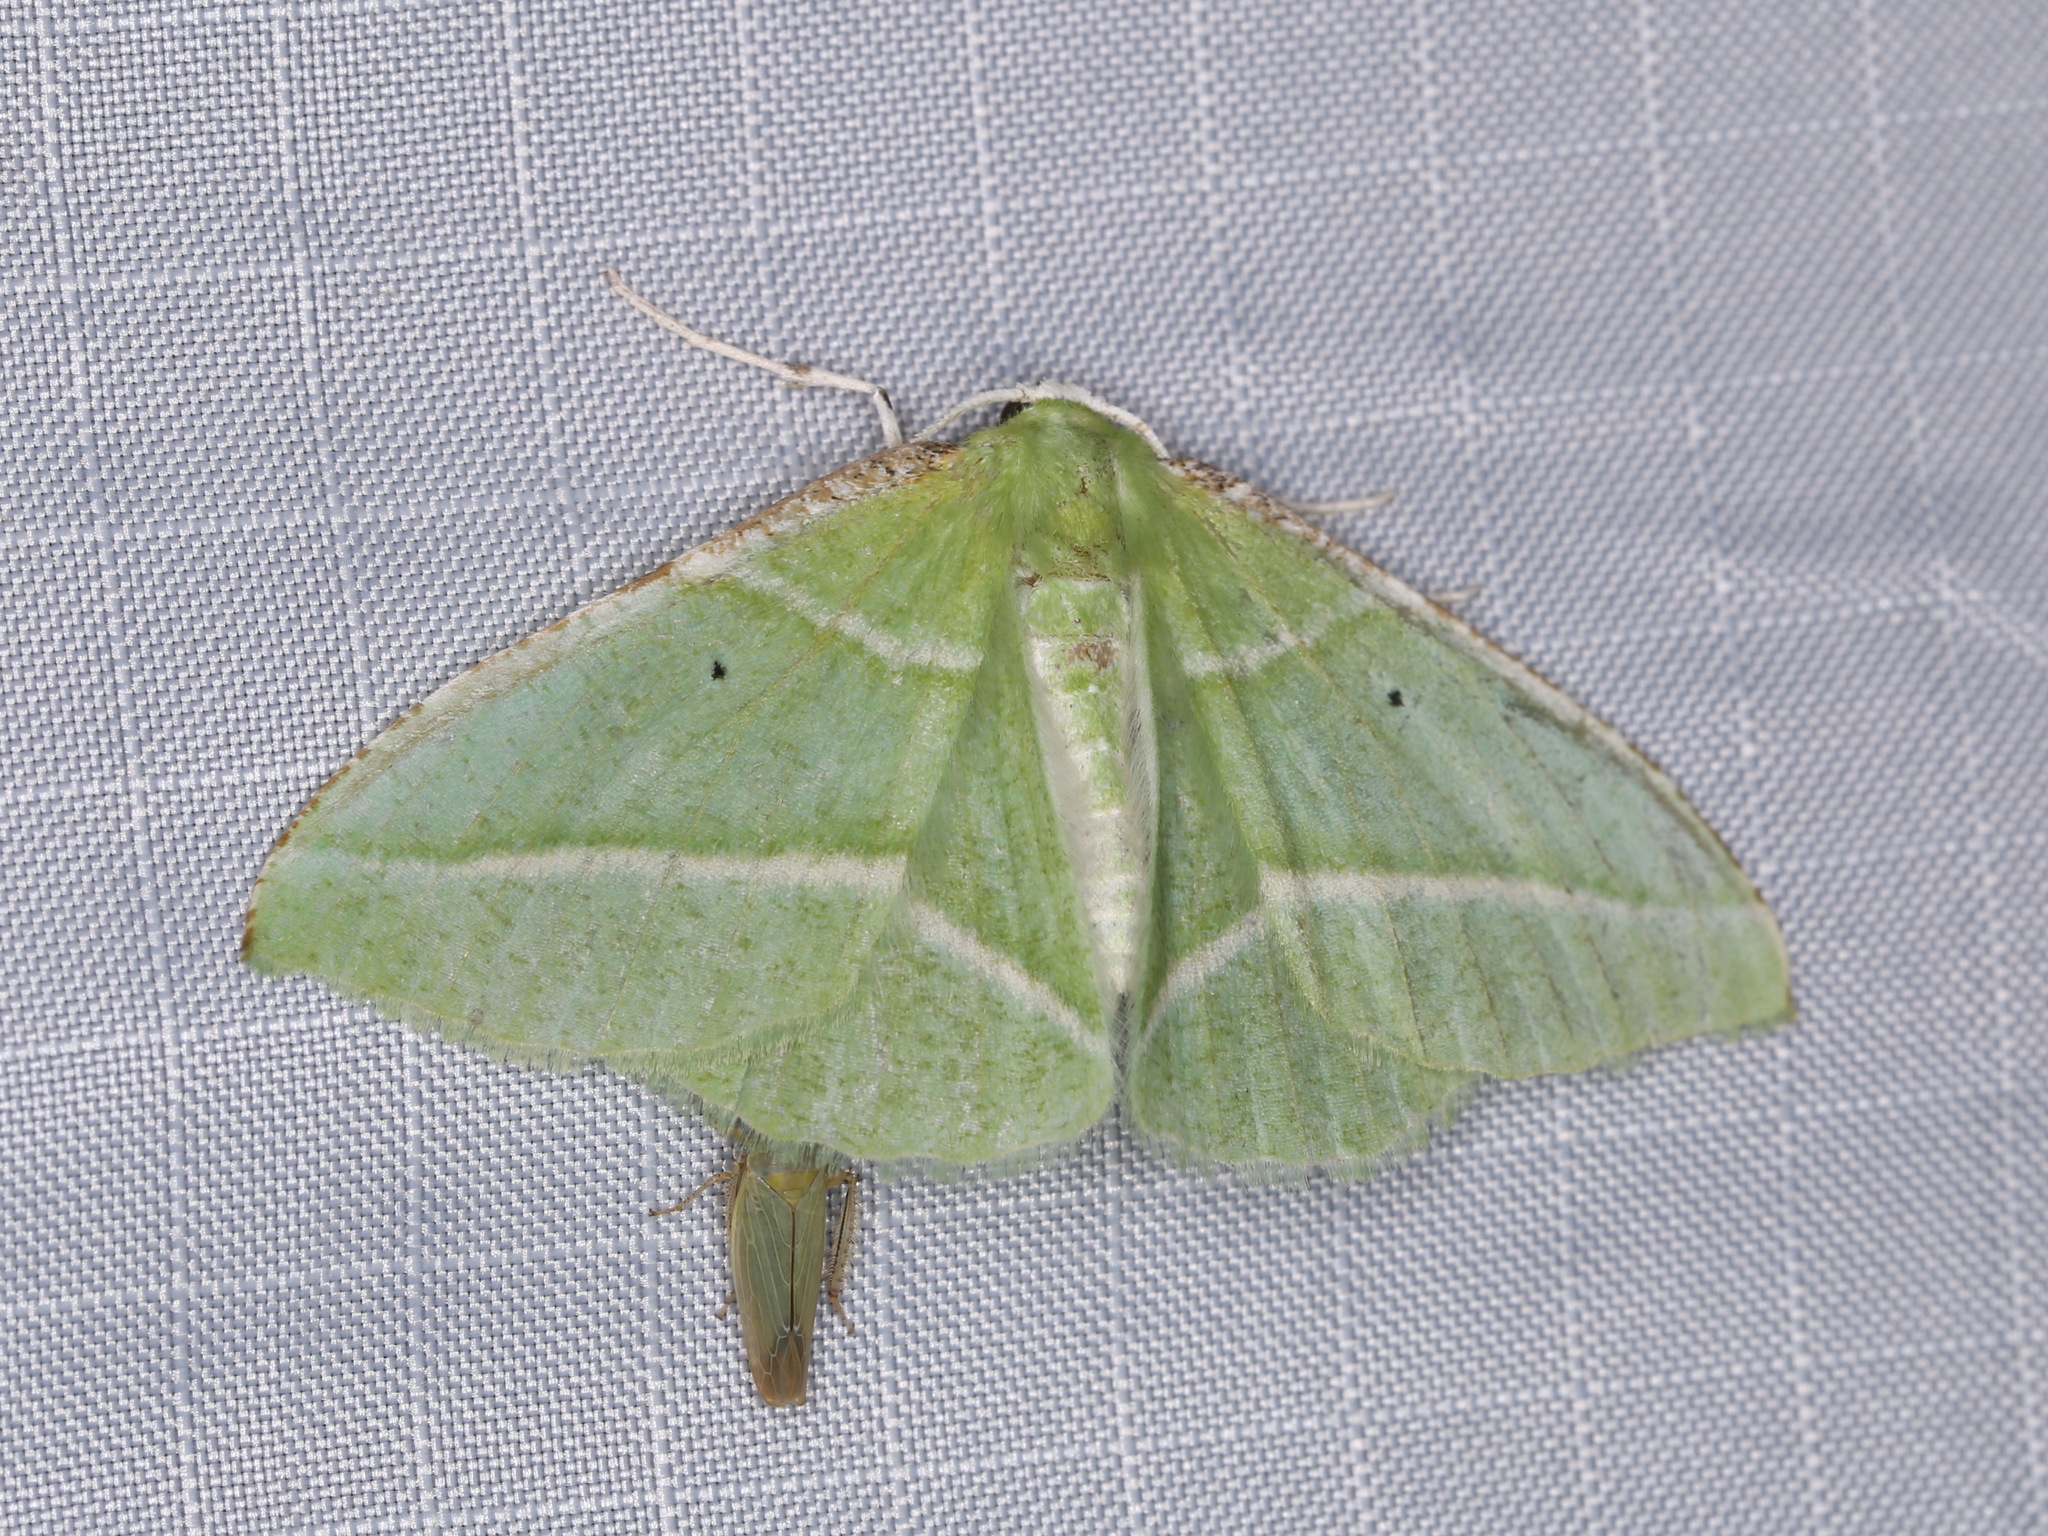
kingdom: Animalia
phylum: Arthropoda
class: Insecta
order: Lepidoptera
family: Geometridae
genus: Dichorda
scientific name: Dichorda illustraria
